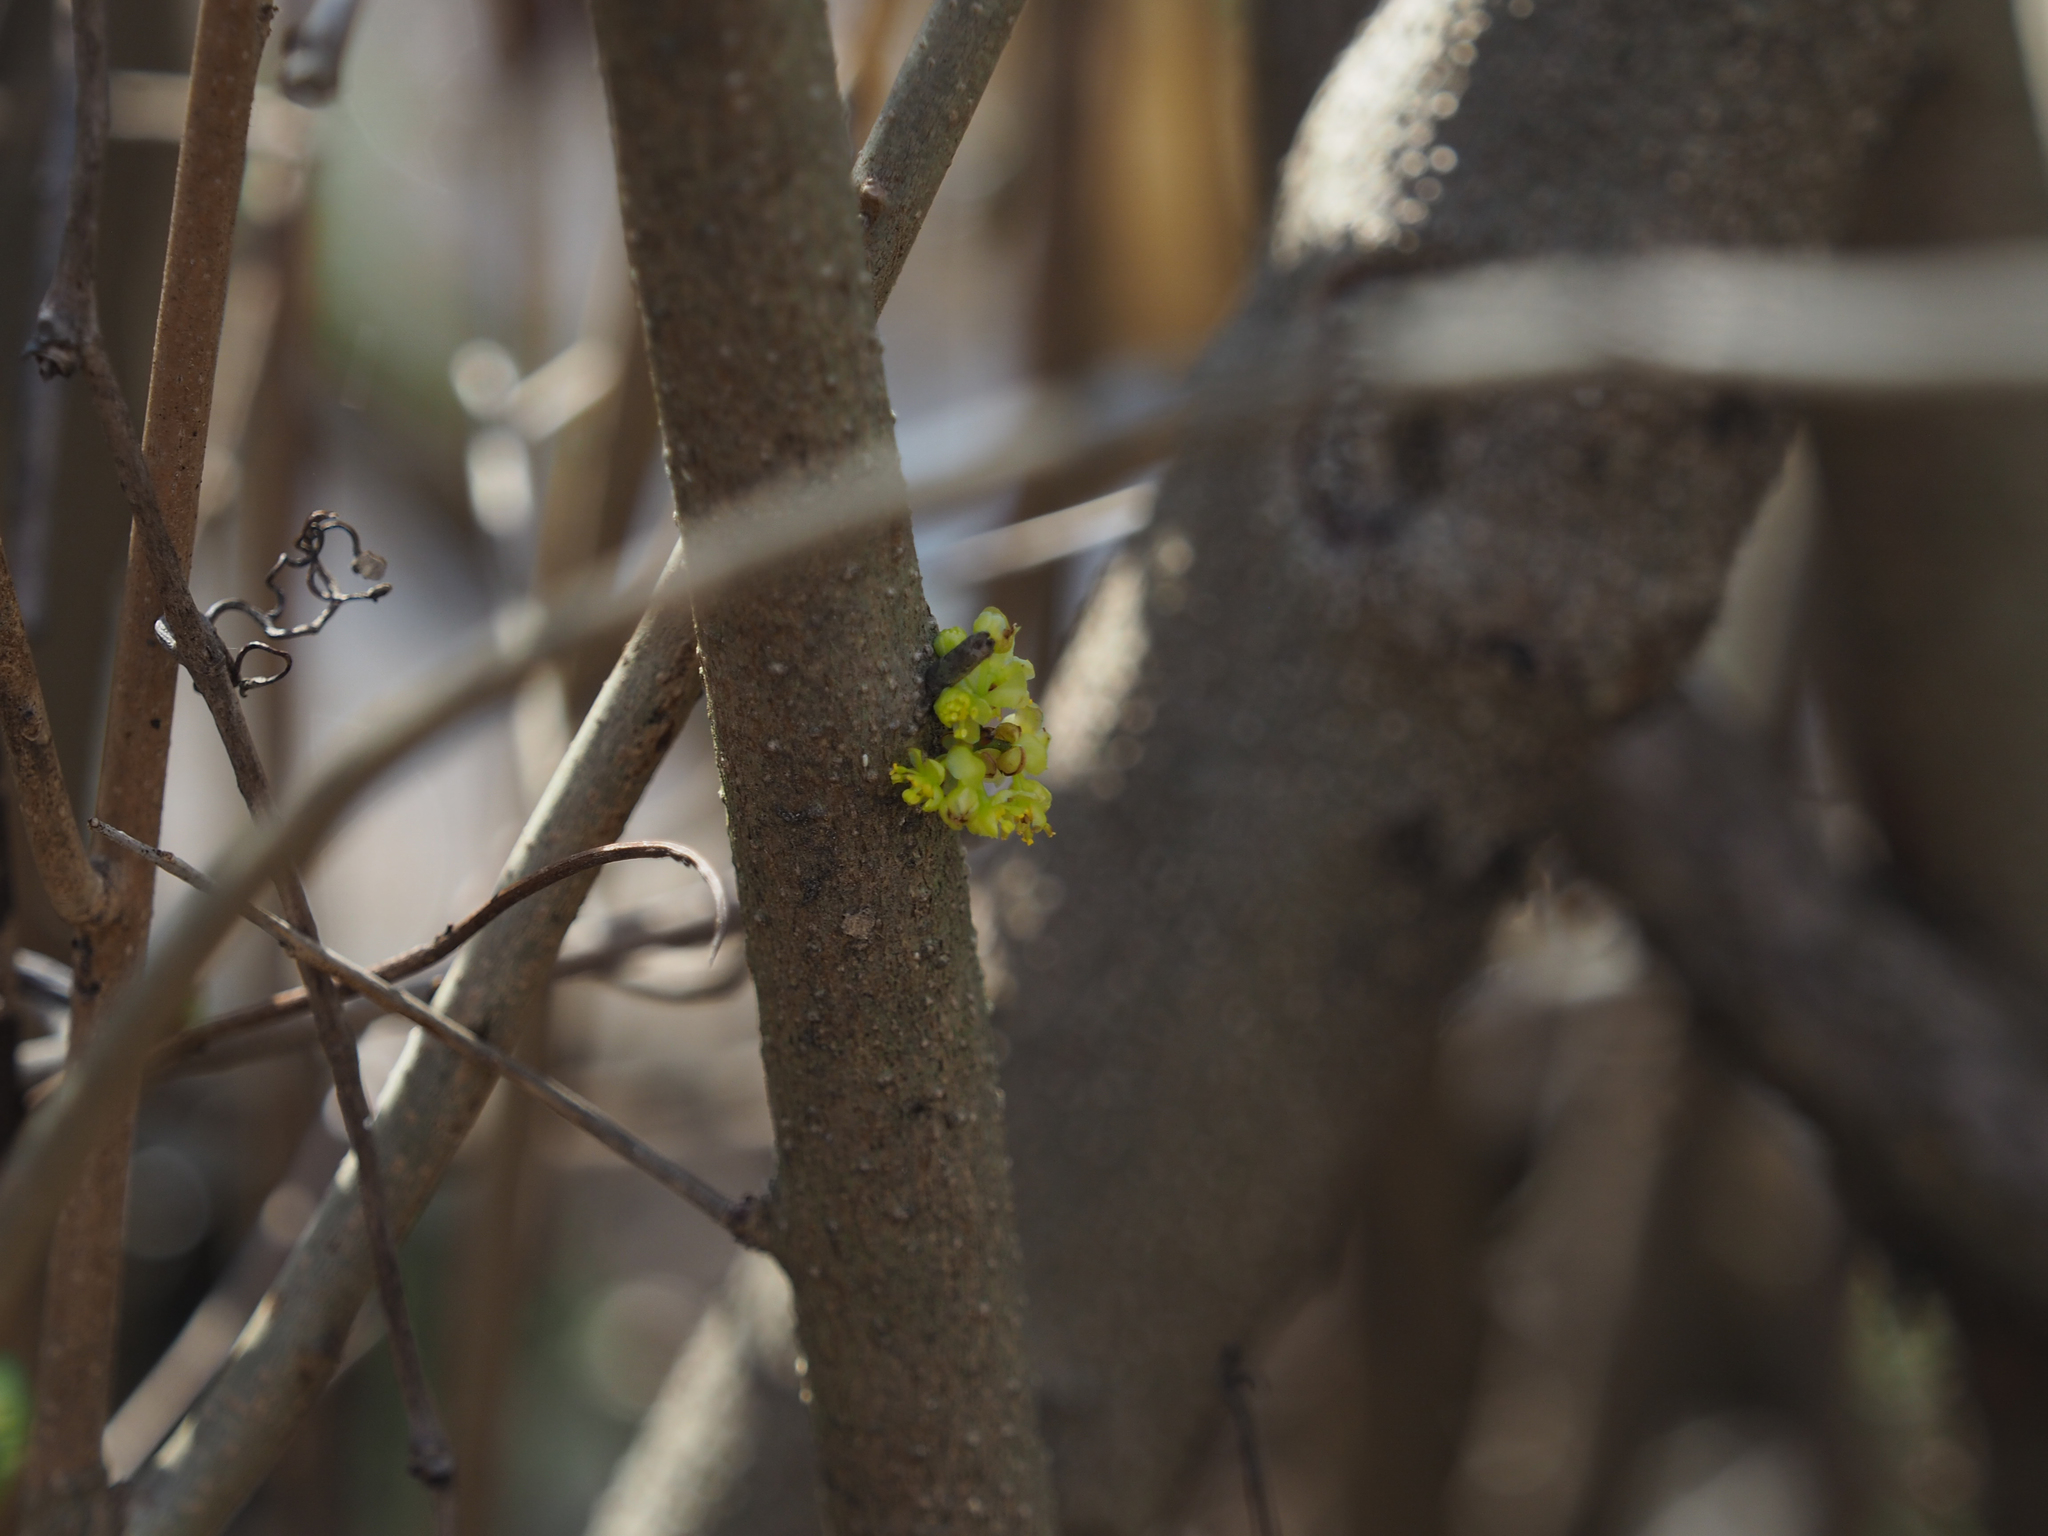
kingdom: Plantae
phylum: Tracheophyta
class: Magnoliopsida
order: Laurales
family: Lauraceae
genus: Lindera
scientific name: Lindera benzoin
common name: Spicebush
